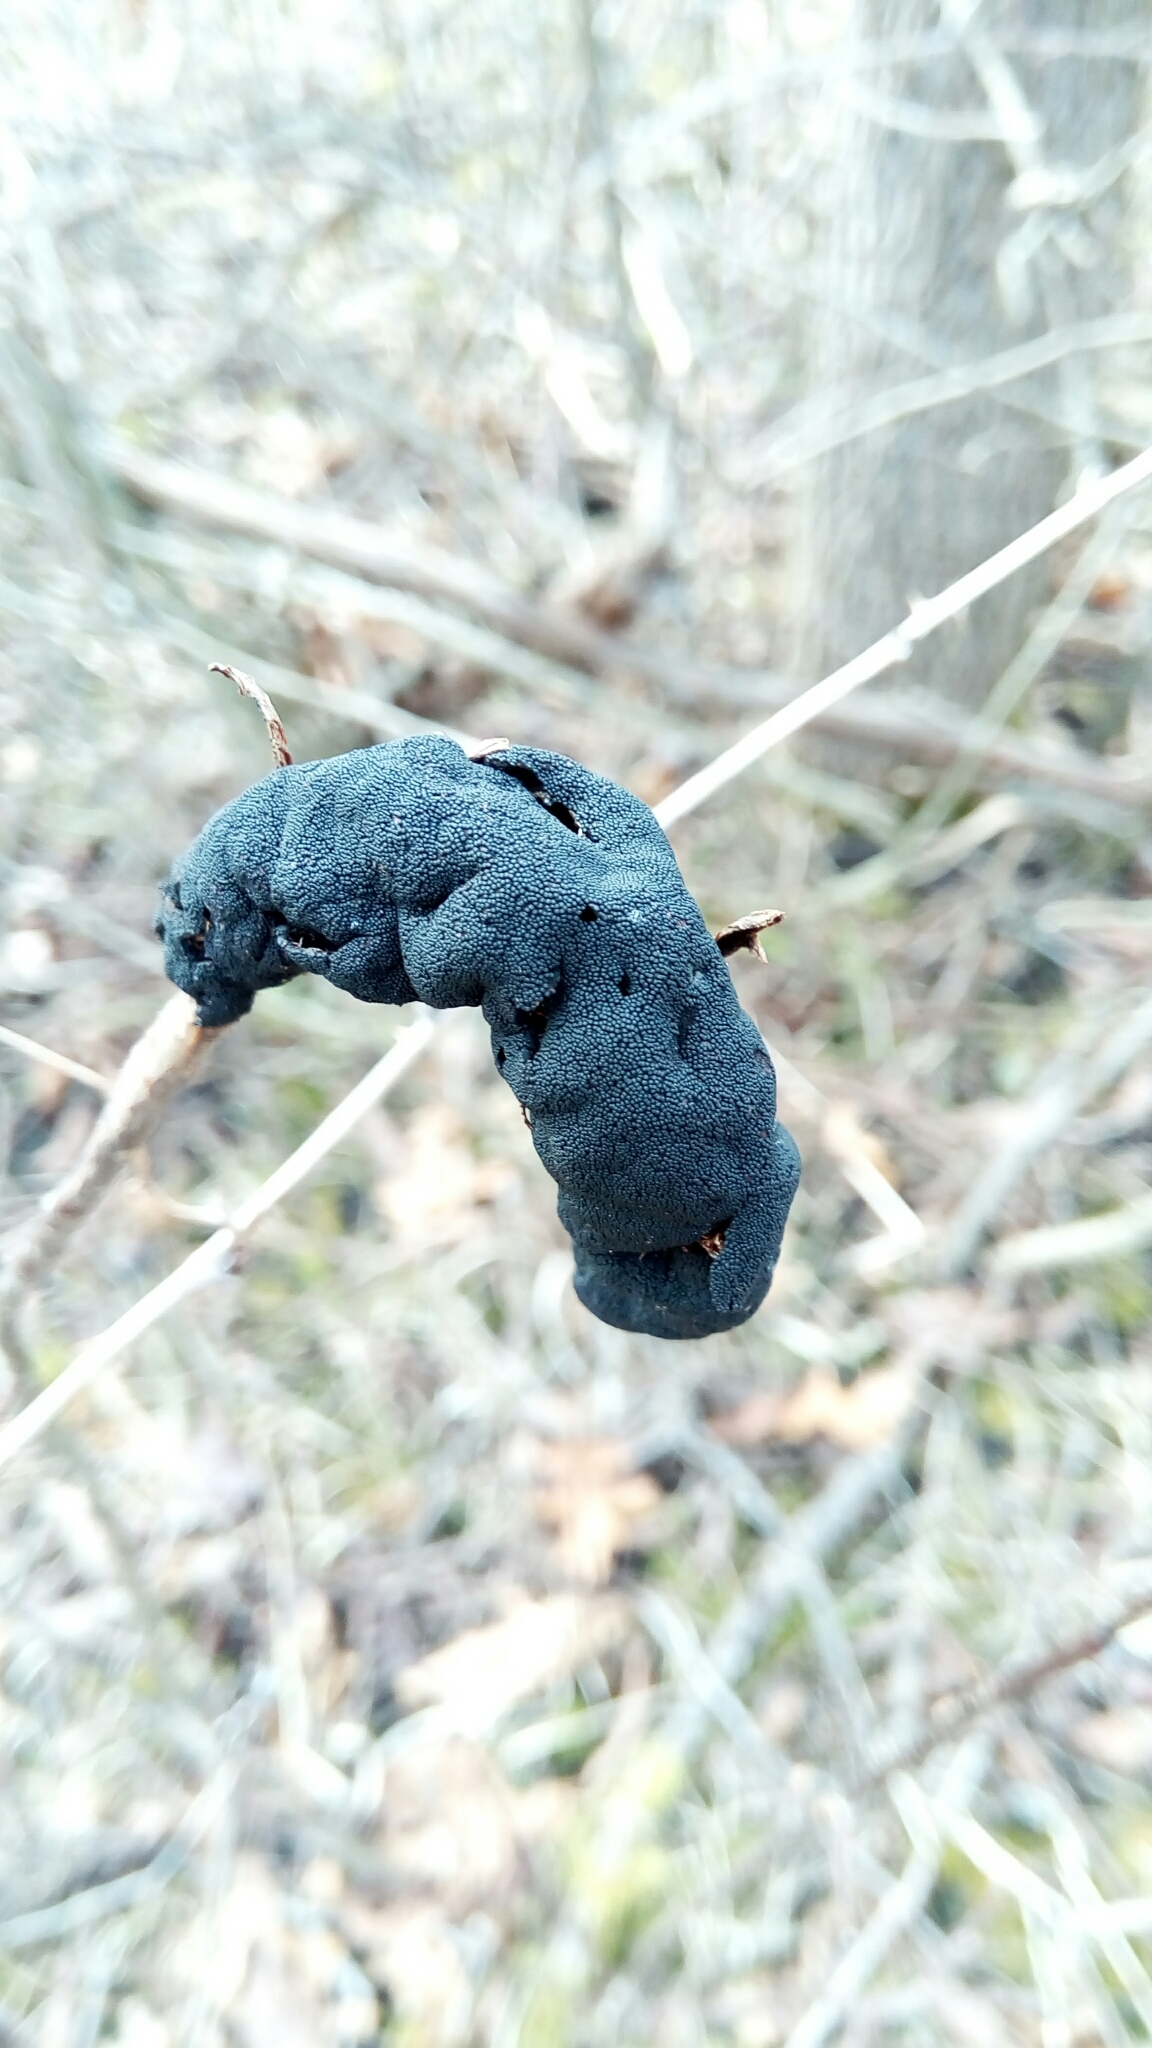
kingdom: Fungi
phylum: Ascomycota
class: Dothideomycetes
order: Venturiales
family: Venturiaceae
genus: Apiosporina
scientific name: Apiosporina morbosa
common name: Black knot
